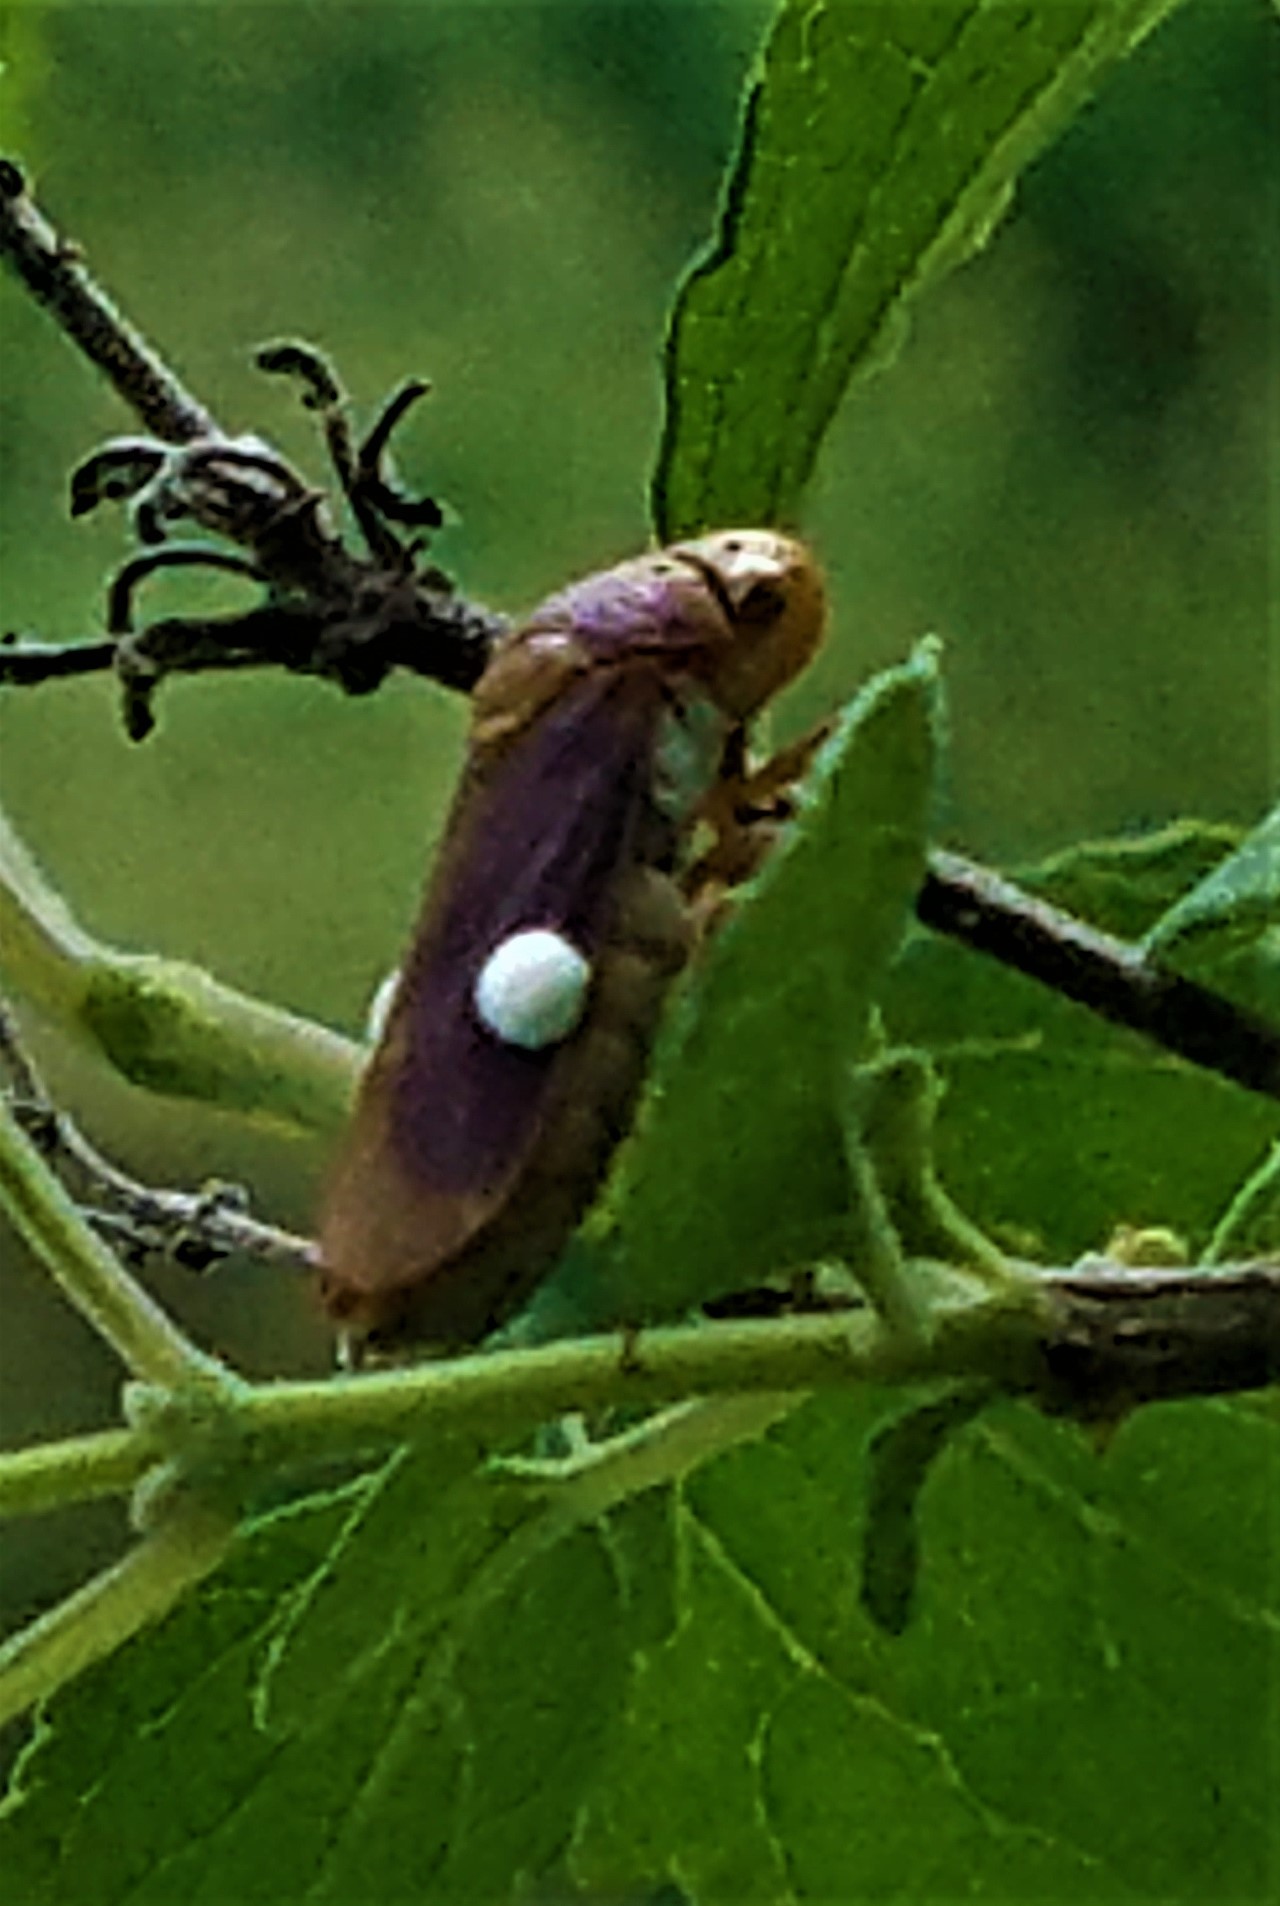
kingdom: Animalia
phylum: Arthropoda
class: Insecta
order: Hemiptera
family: Cicadellidae
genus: Oncometopia
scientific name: Oncometopia hamiltoni
